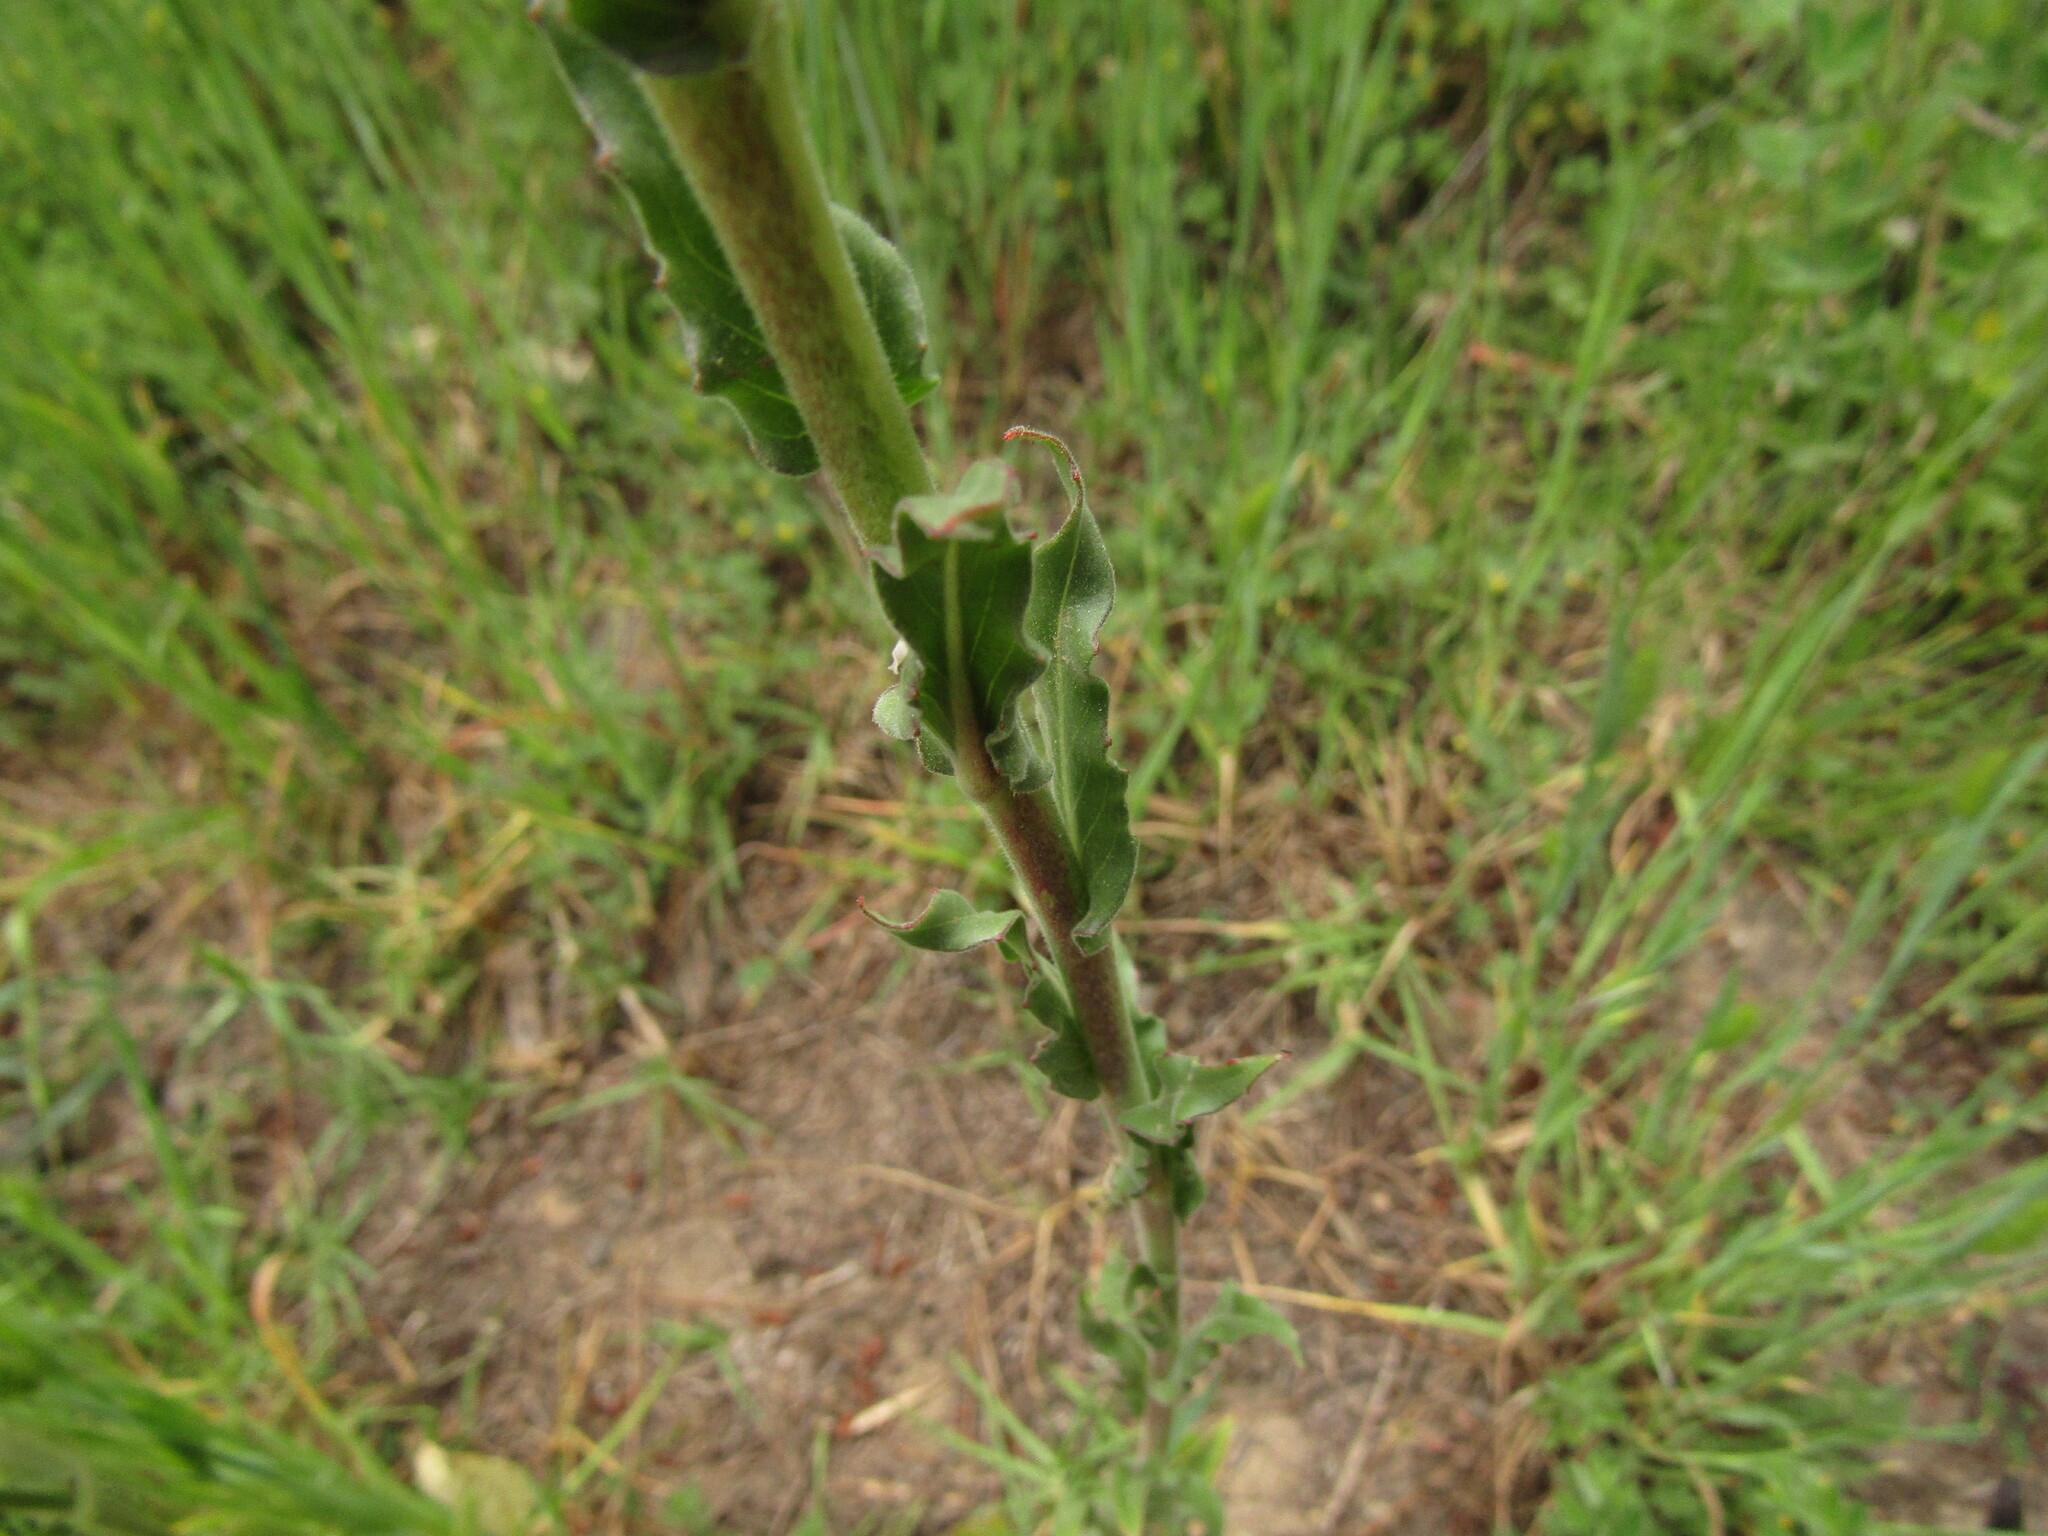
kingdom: Plantae
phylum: Tracheophyta
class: Magnoliopsida
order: Myrtales
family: Onagraceae
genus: Oenothera
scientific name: Oenothera stricta
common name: Fragrant evening-primrose
